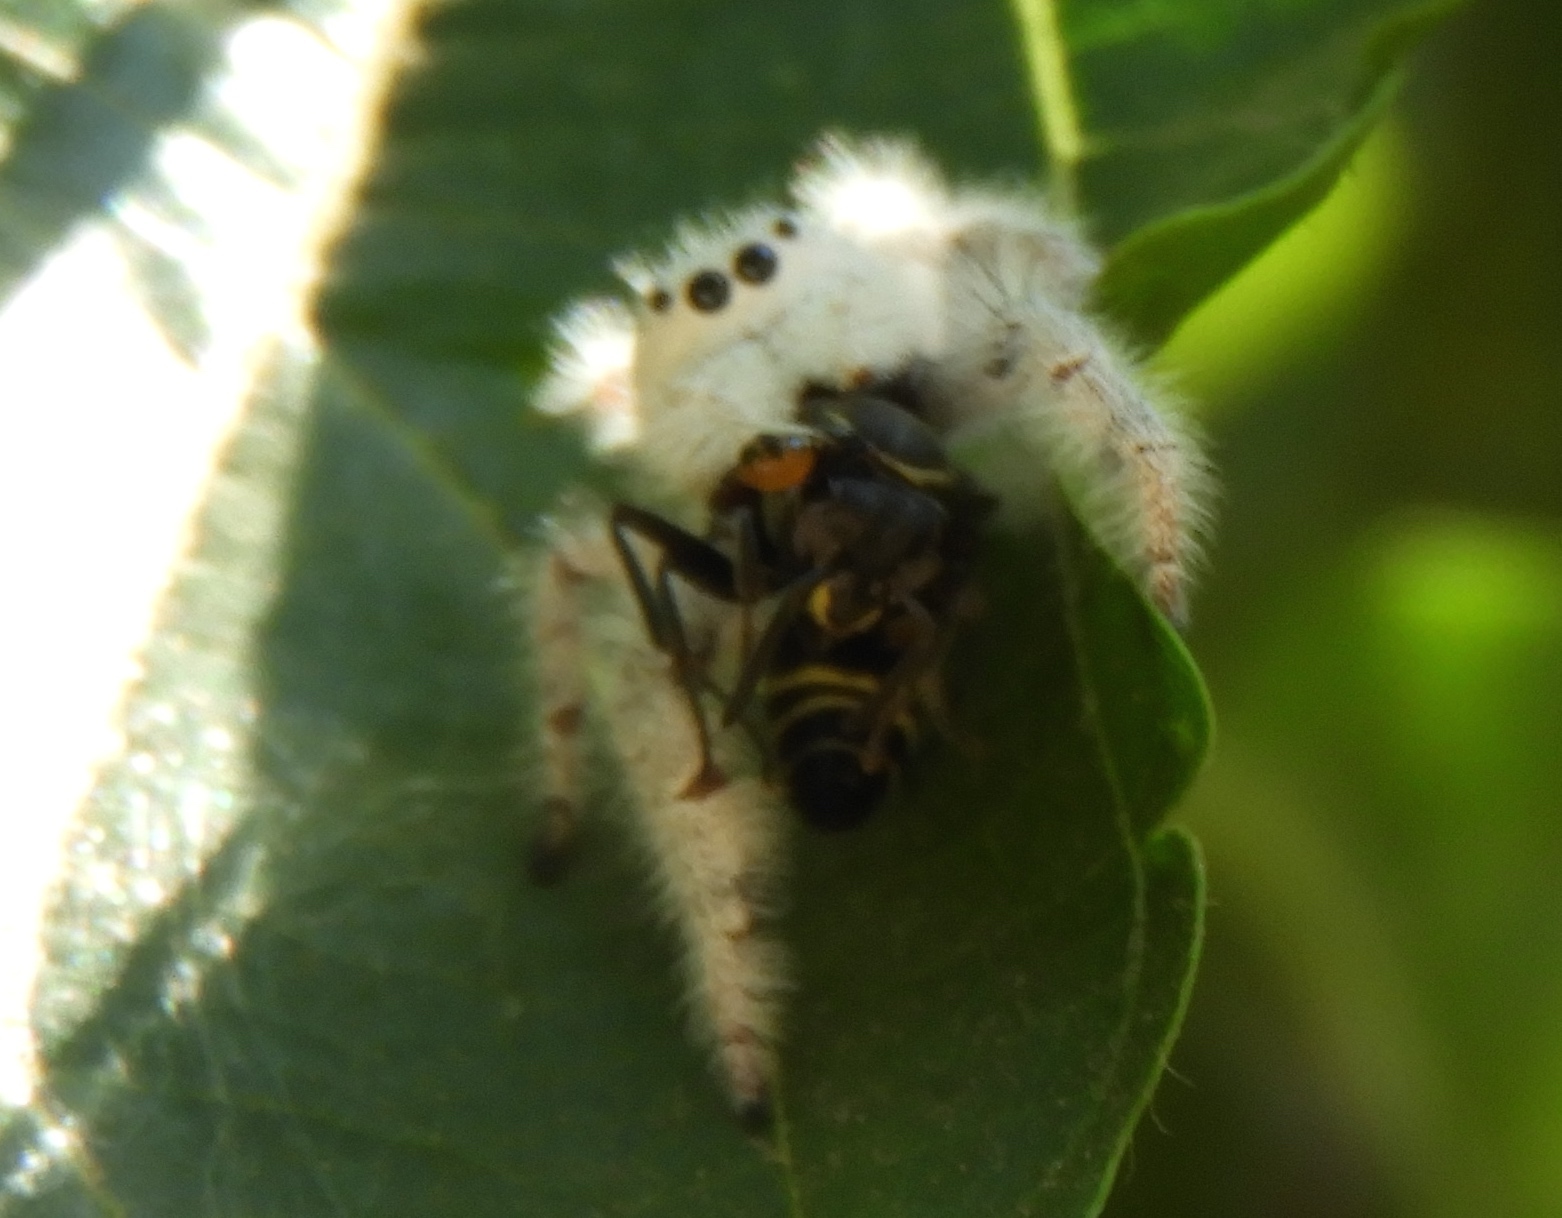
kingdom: Animalia
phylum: Arthropoda
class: Arachnida
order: Araneae
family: Salticidae
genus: Paraphidippus
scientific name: Paraphidippus fartilis
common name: Jumping spiders
